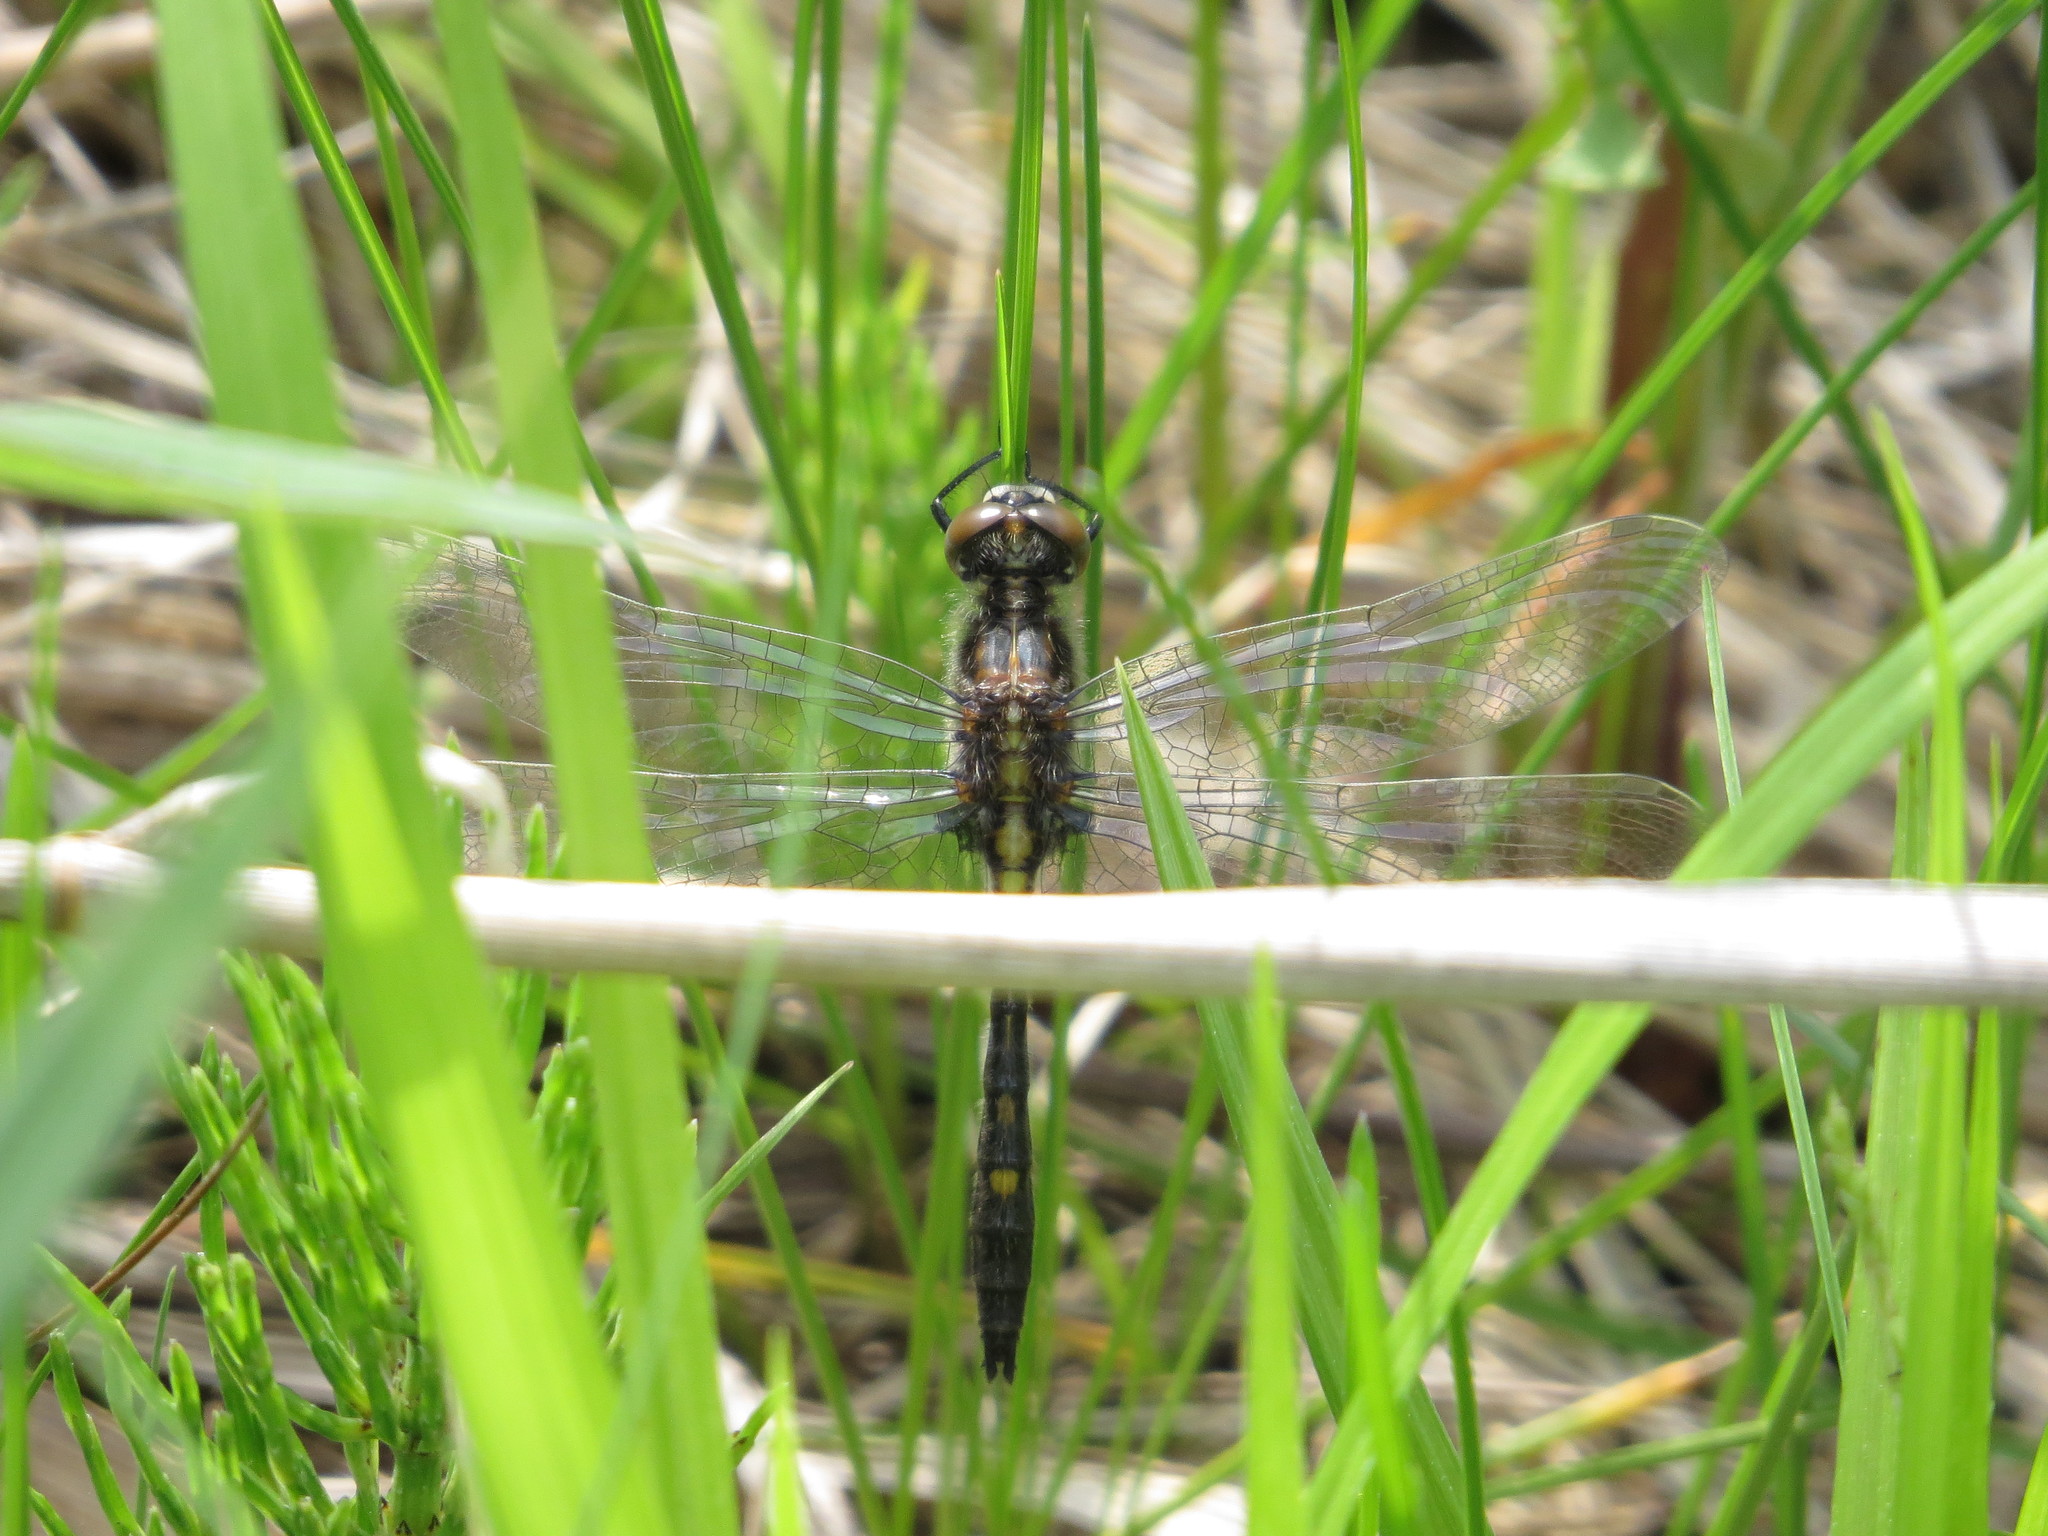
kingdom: Animalia
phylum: Arthropoda
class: Insecta
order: Odonata
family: Libellulidae
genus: Leucorrhinia
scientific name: Leucorrhinia intacta
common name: Dot-tailed whiteface
